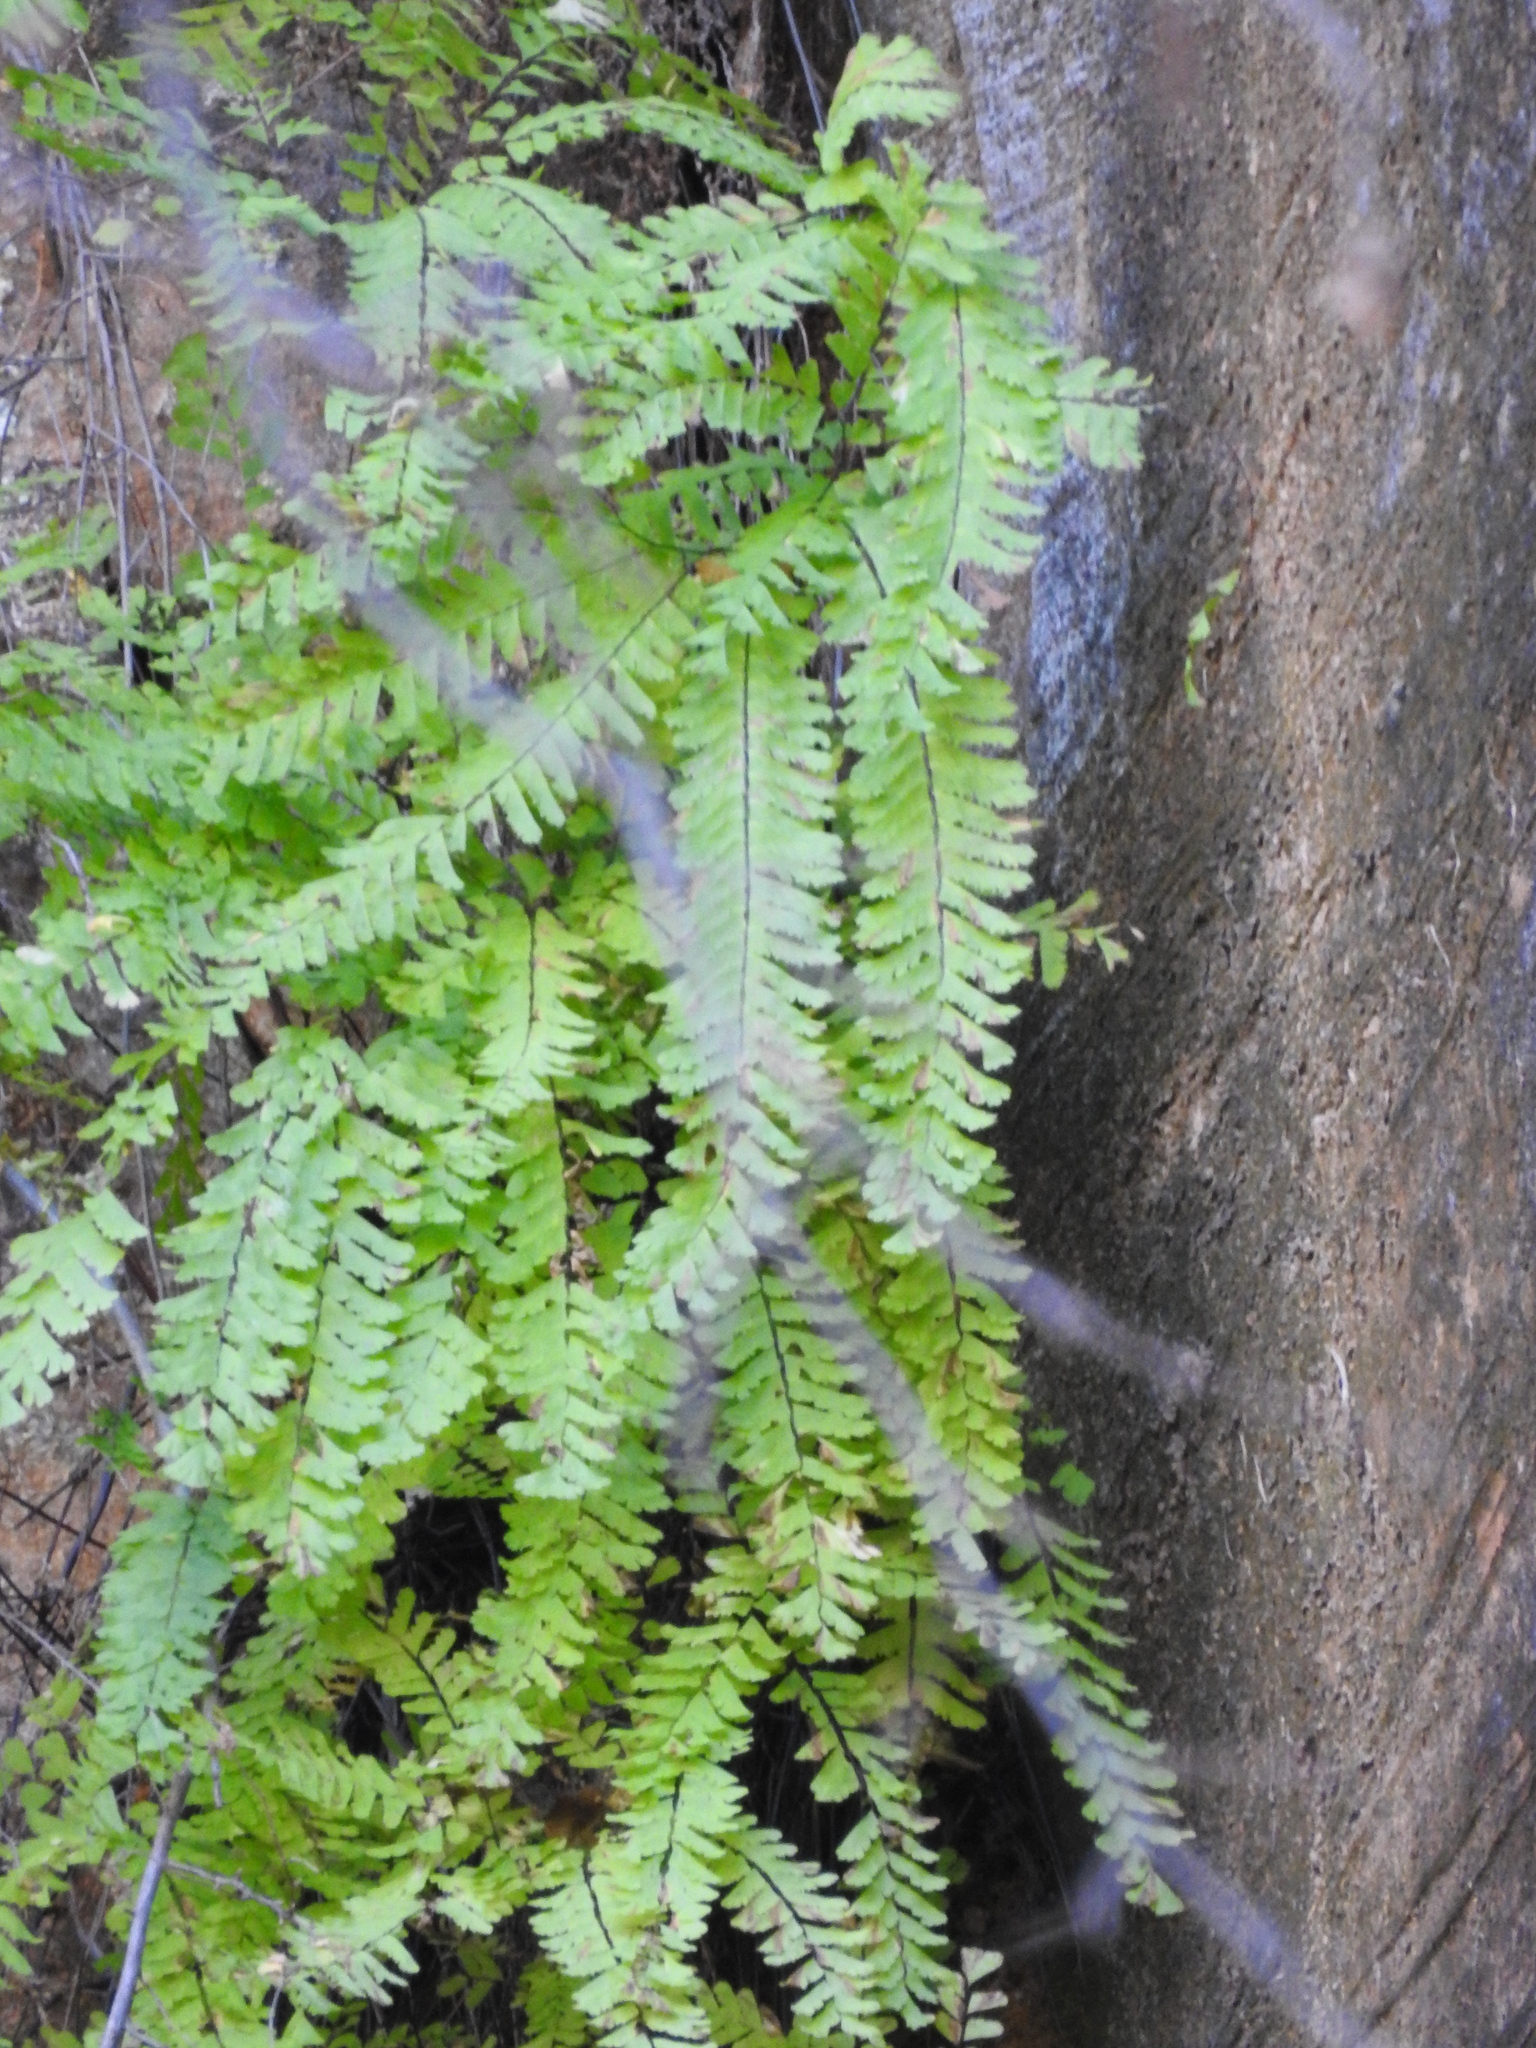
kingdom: Plantae
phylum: Tracheophyta
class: Polypodiopsida
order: Polypodiales
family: Pteridaceae
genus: Adiantum
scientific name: Adiantum aleuticum
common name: Aleutian maidenhair fern
